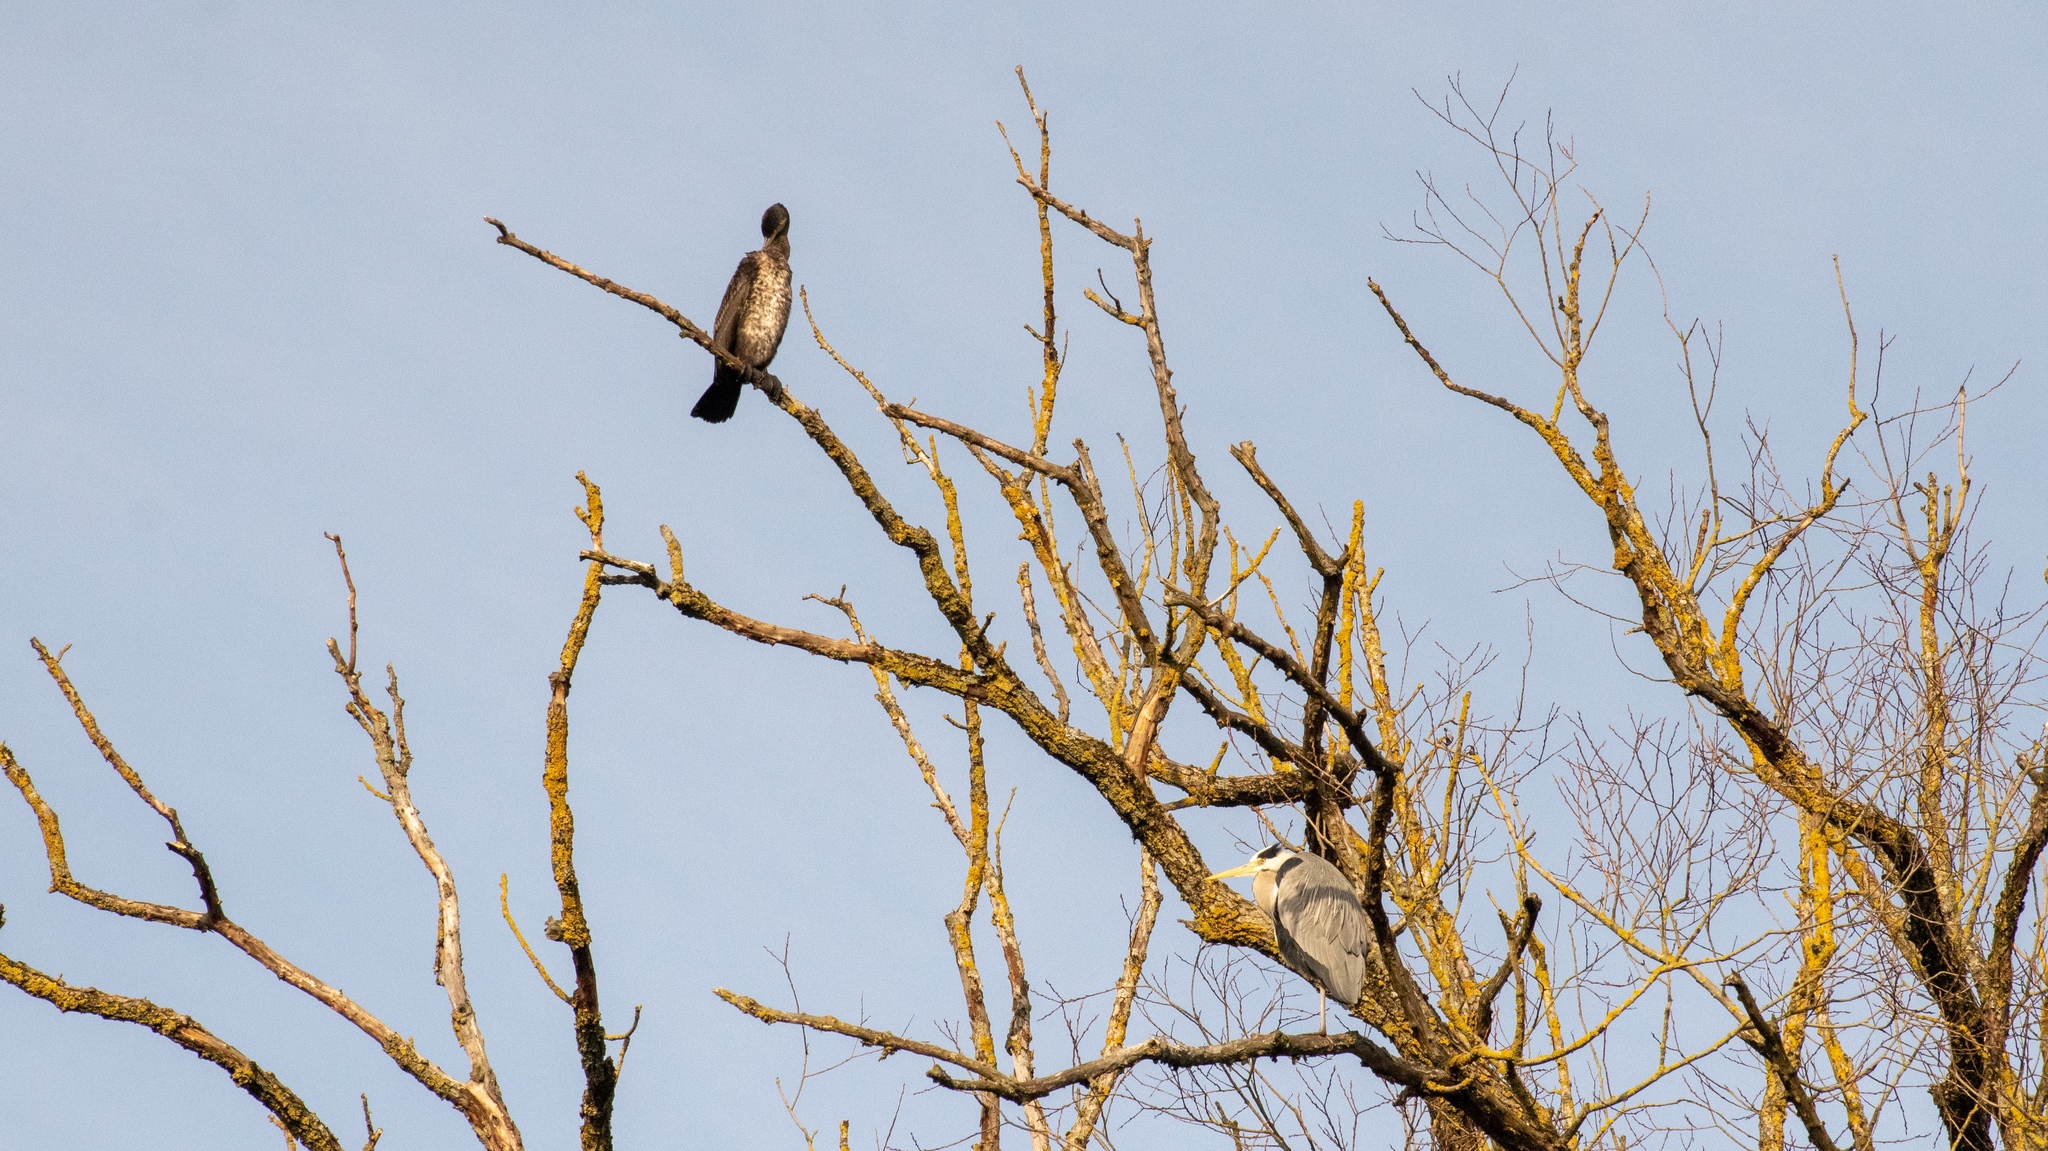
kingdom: Animalia
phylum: Chordata
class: Aves
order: Suliformes
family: Phalacrocoracidae
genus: Phalacrocorax
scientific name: Phalacrocorax carbo
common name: Great cormorant
